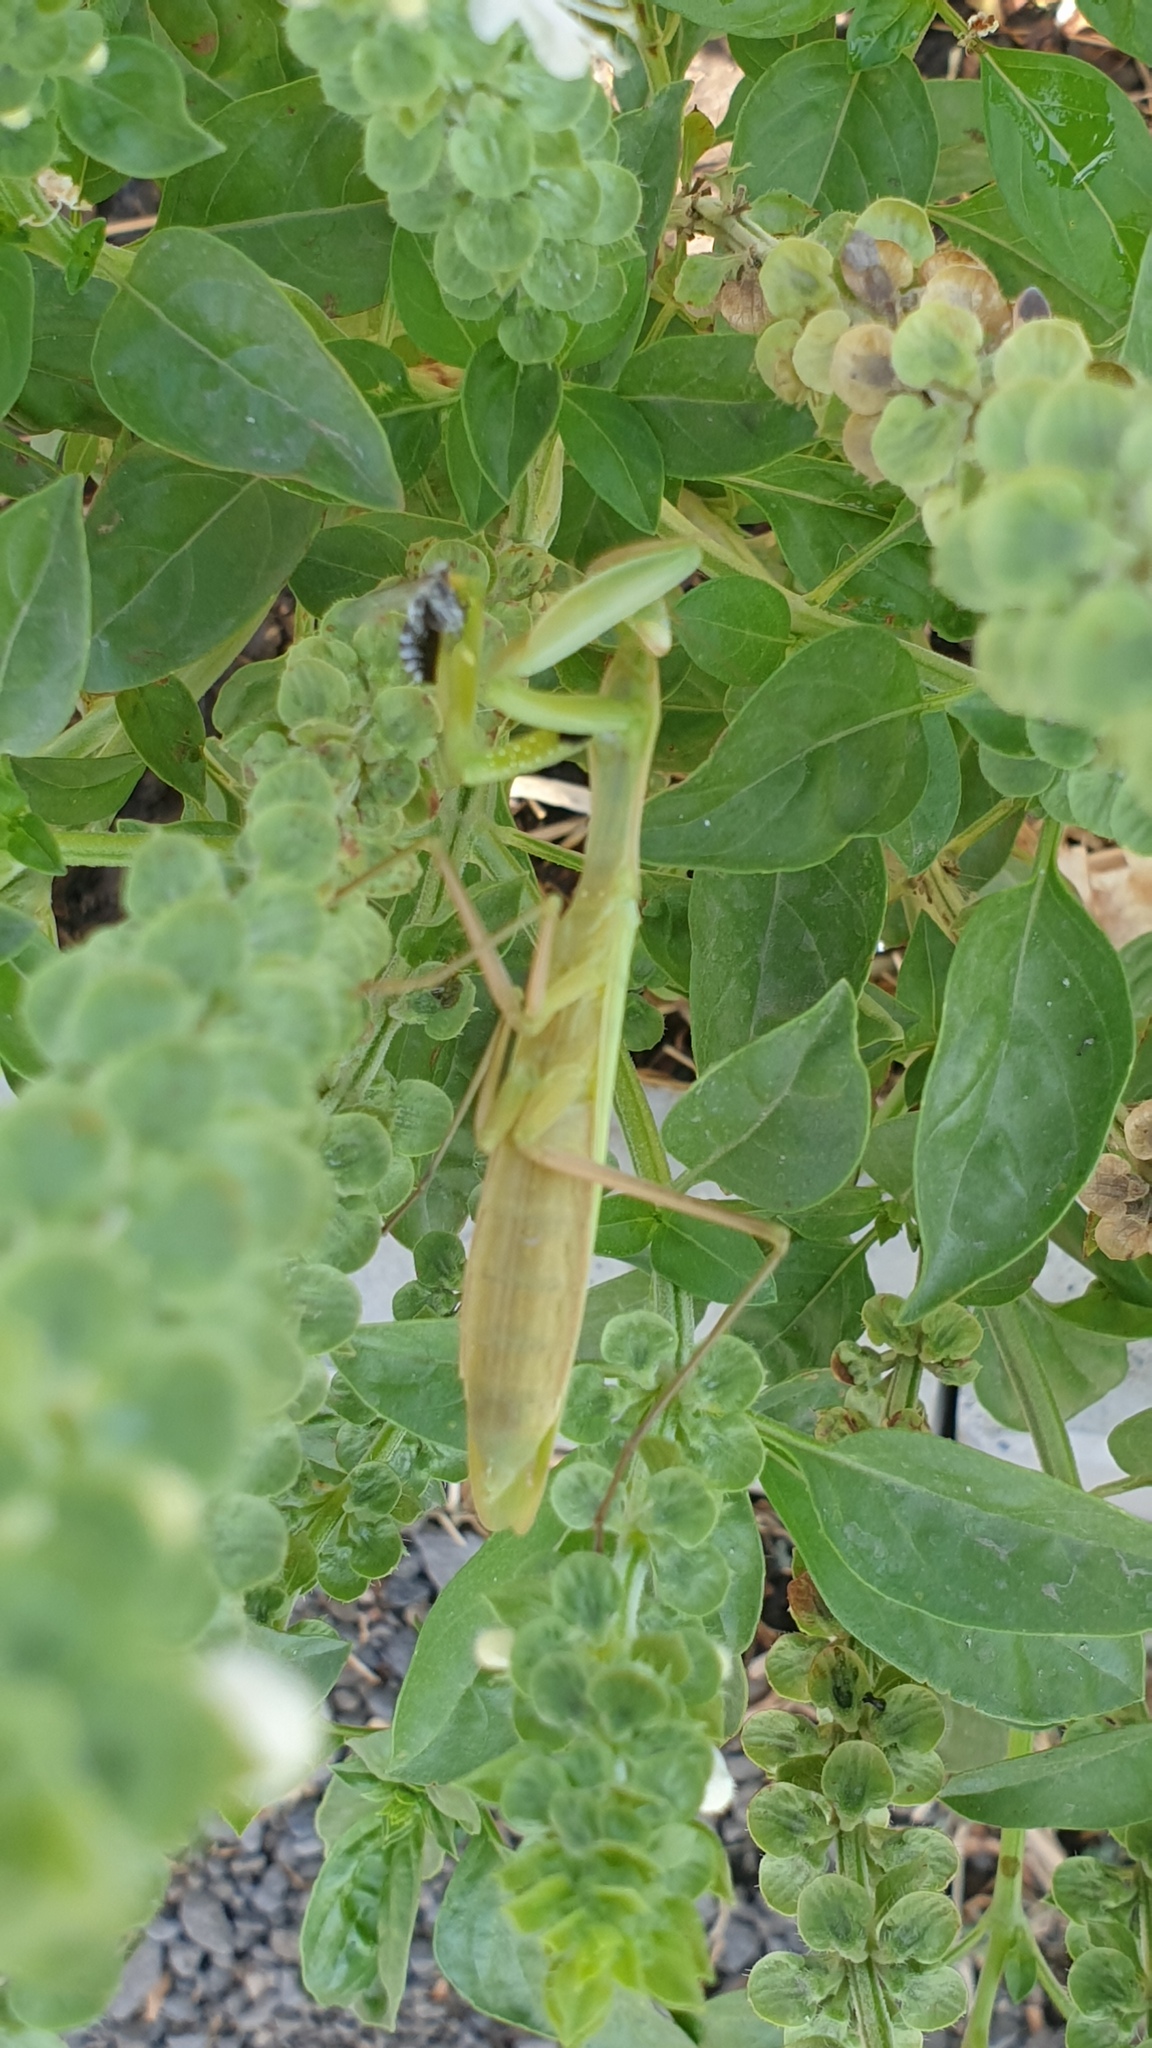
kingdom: Animalia
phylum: Arthropoda
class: Insecta
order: Mantodea
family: Mantidae
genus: Mantis
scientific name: Mantis religiosa
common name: Praying mantis
